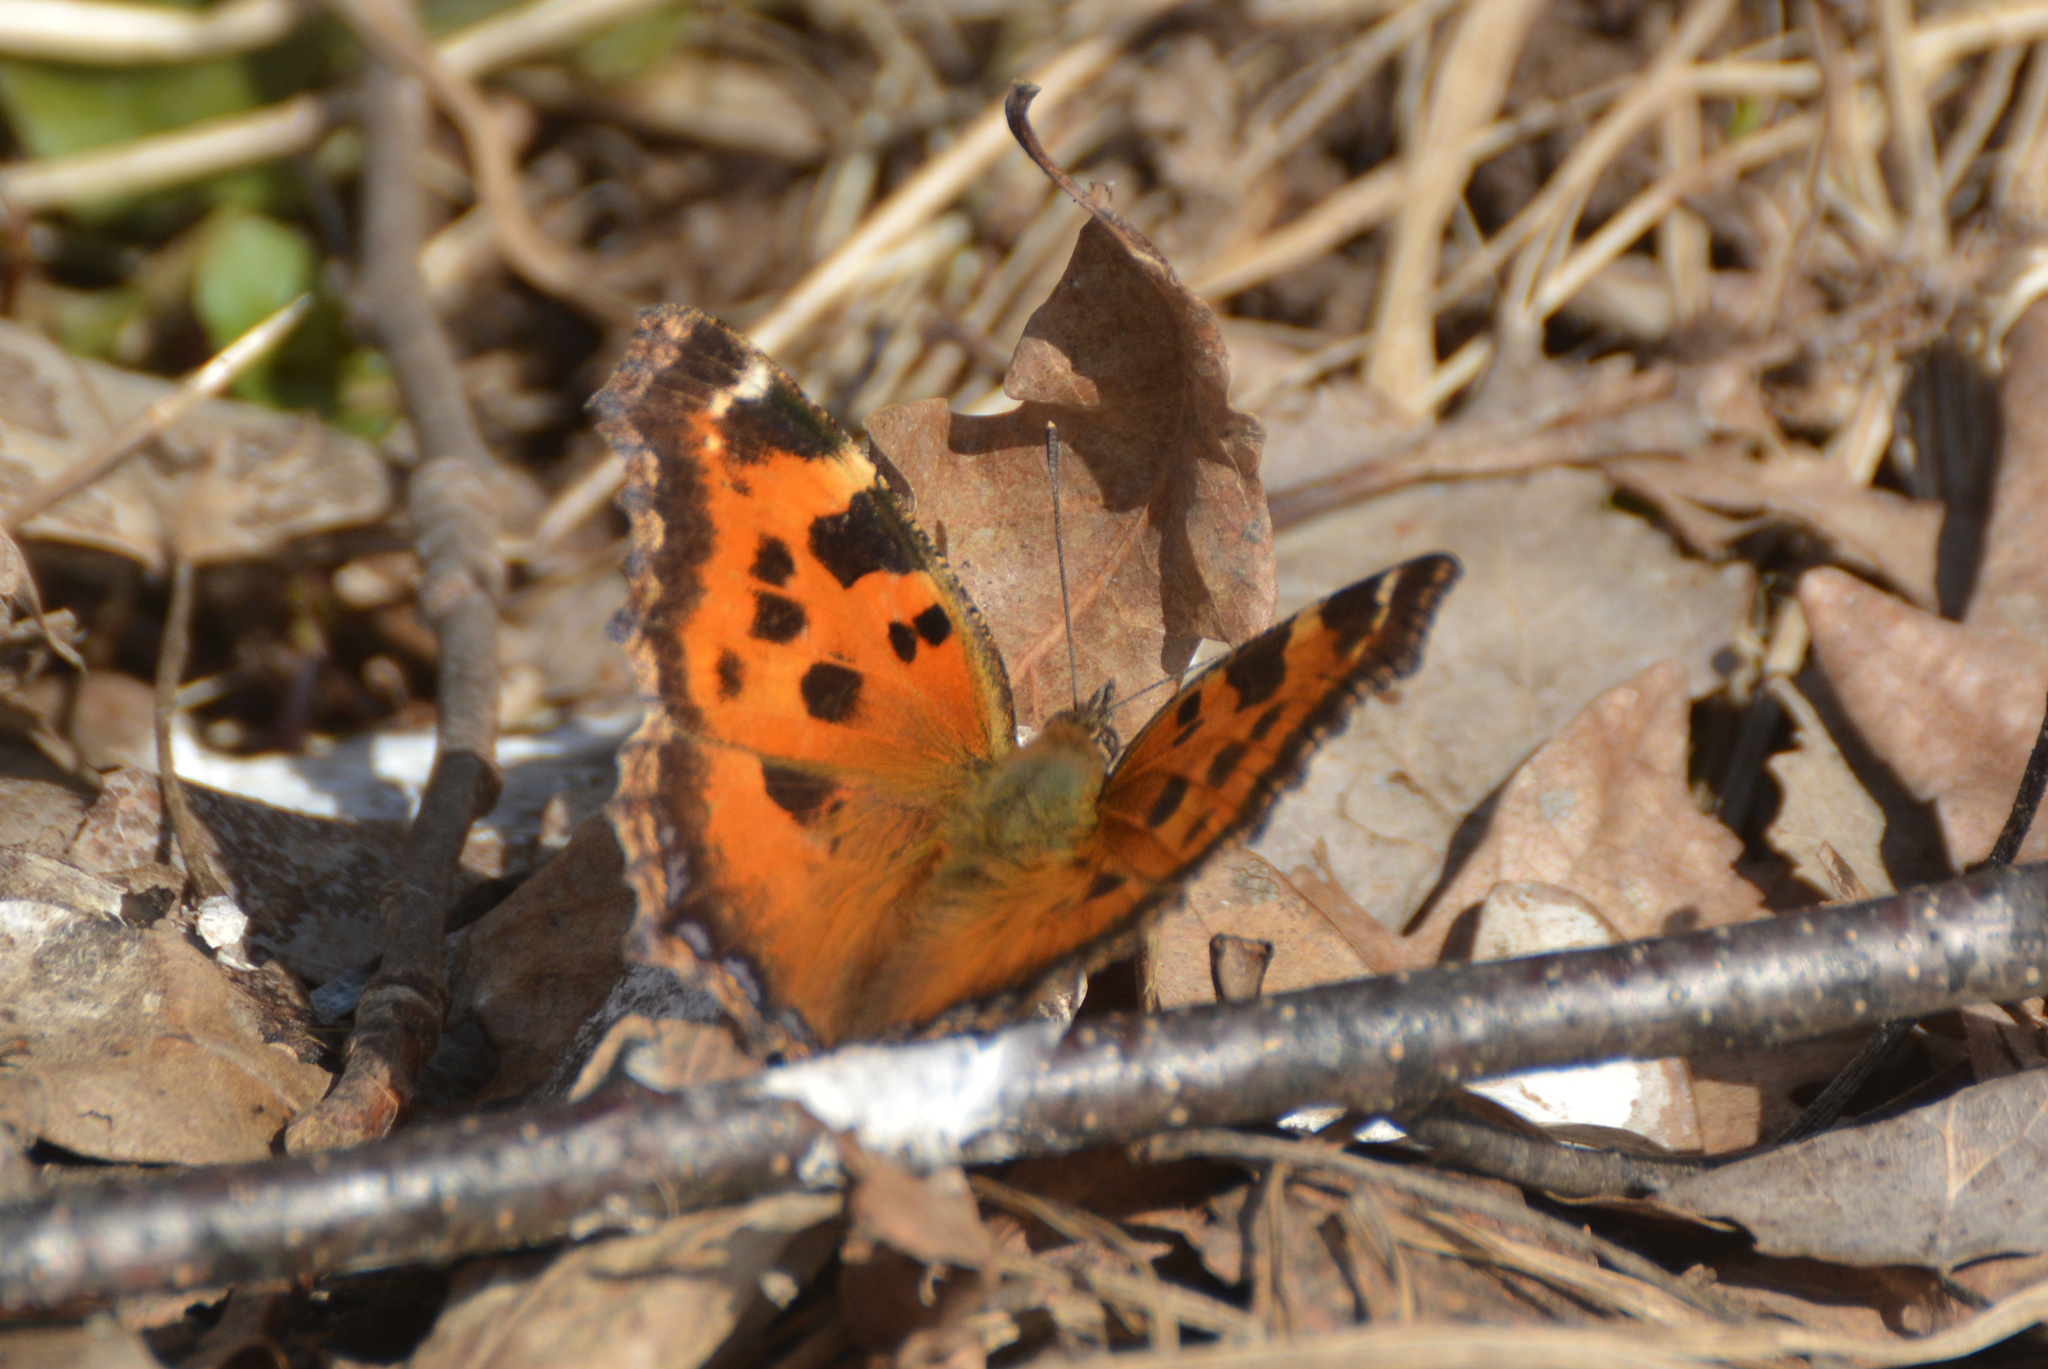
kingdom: Animalia
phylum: Arthropoda
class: Insecta
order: Lepidoptera
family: Nymphalidae
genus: Nymphalis
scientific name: Nymphalis xanthomelas
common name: Scarce tortoiseshell
